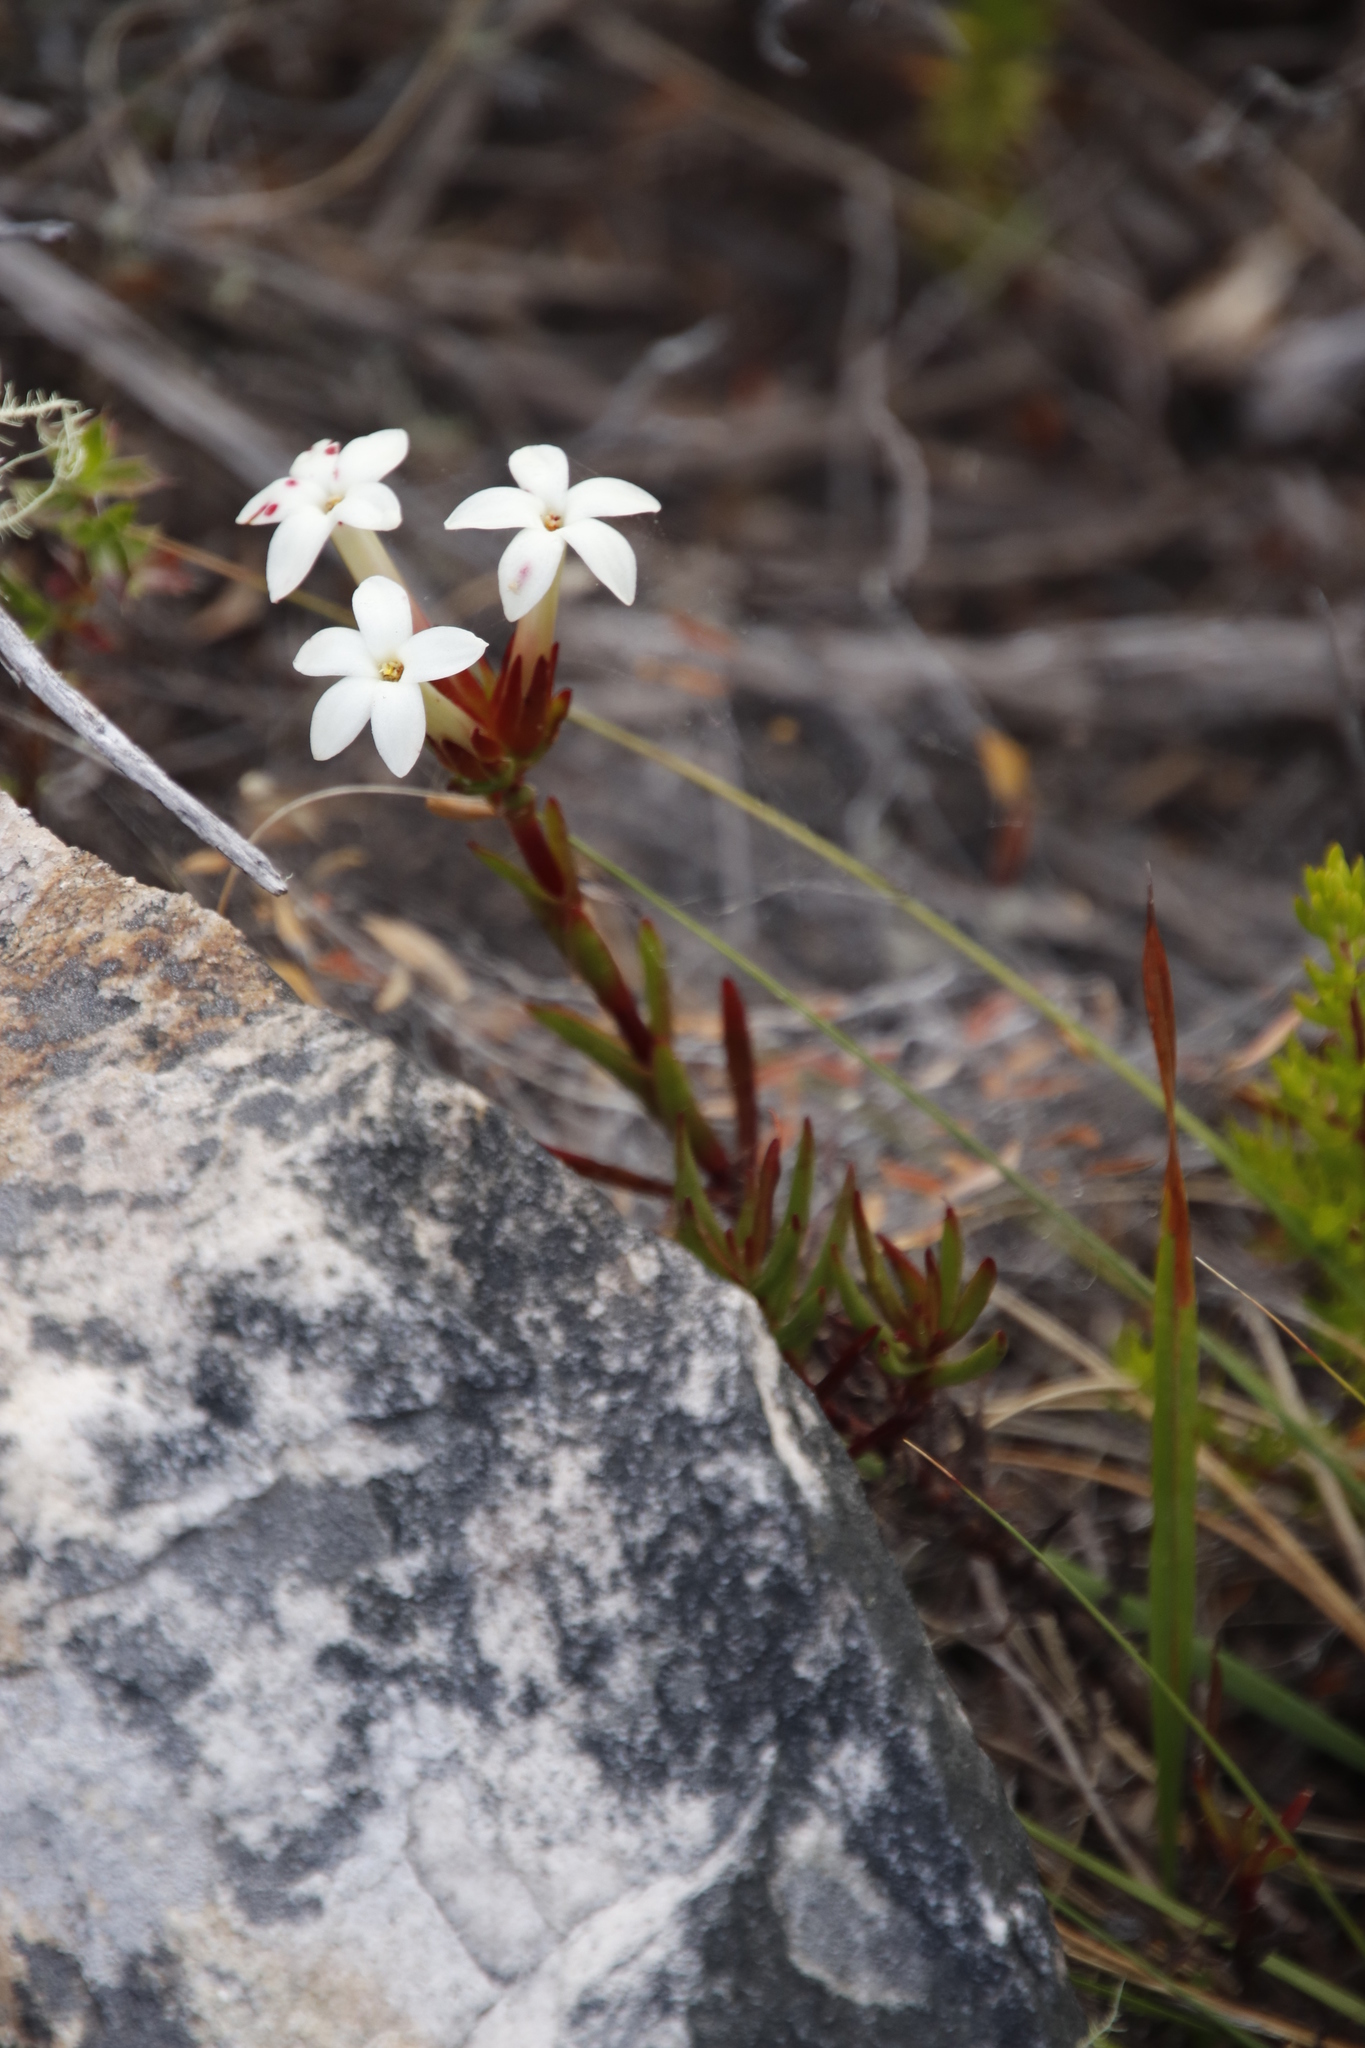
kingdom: Plantae
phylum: Tracheophyta
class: Magnoliopsida
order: Saxifragales
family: Crassulaceae
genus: Crassula
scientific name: Crassula fascicularis
